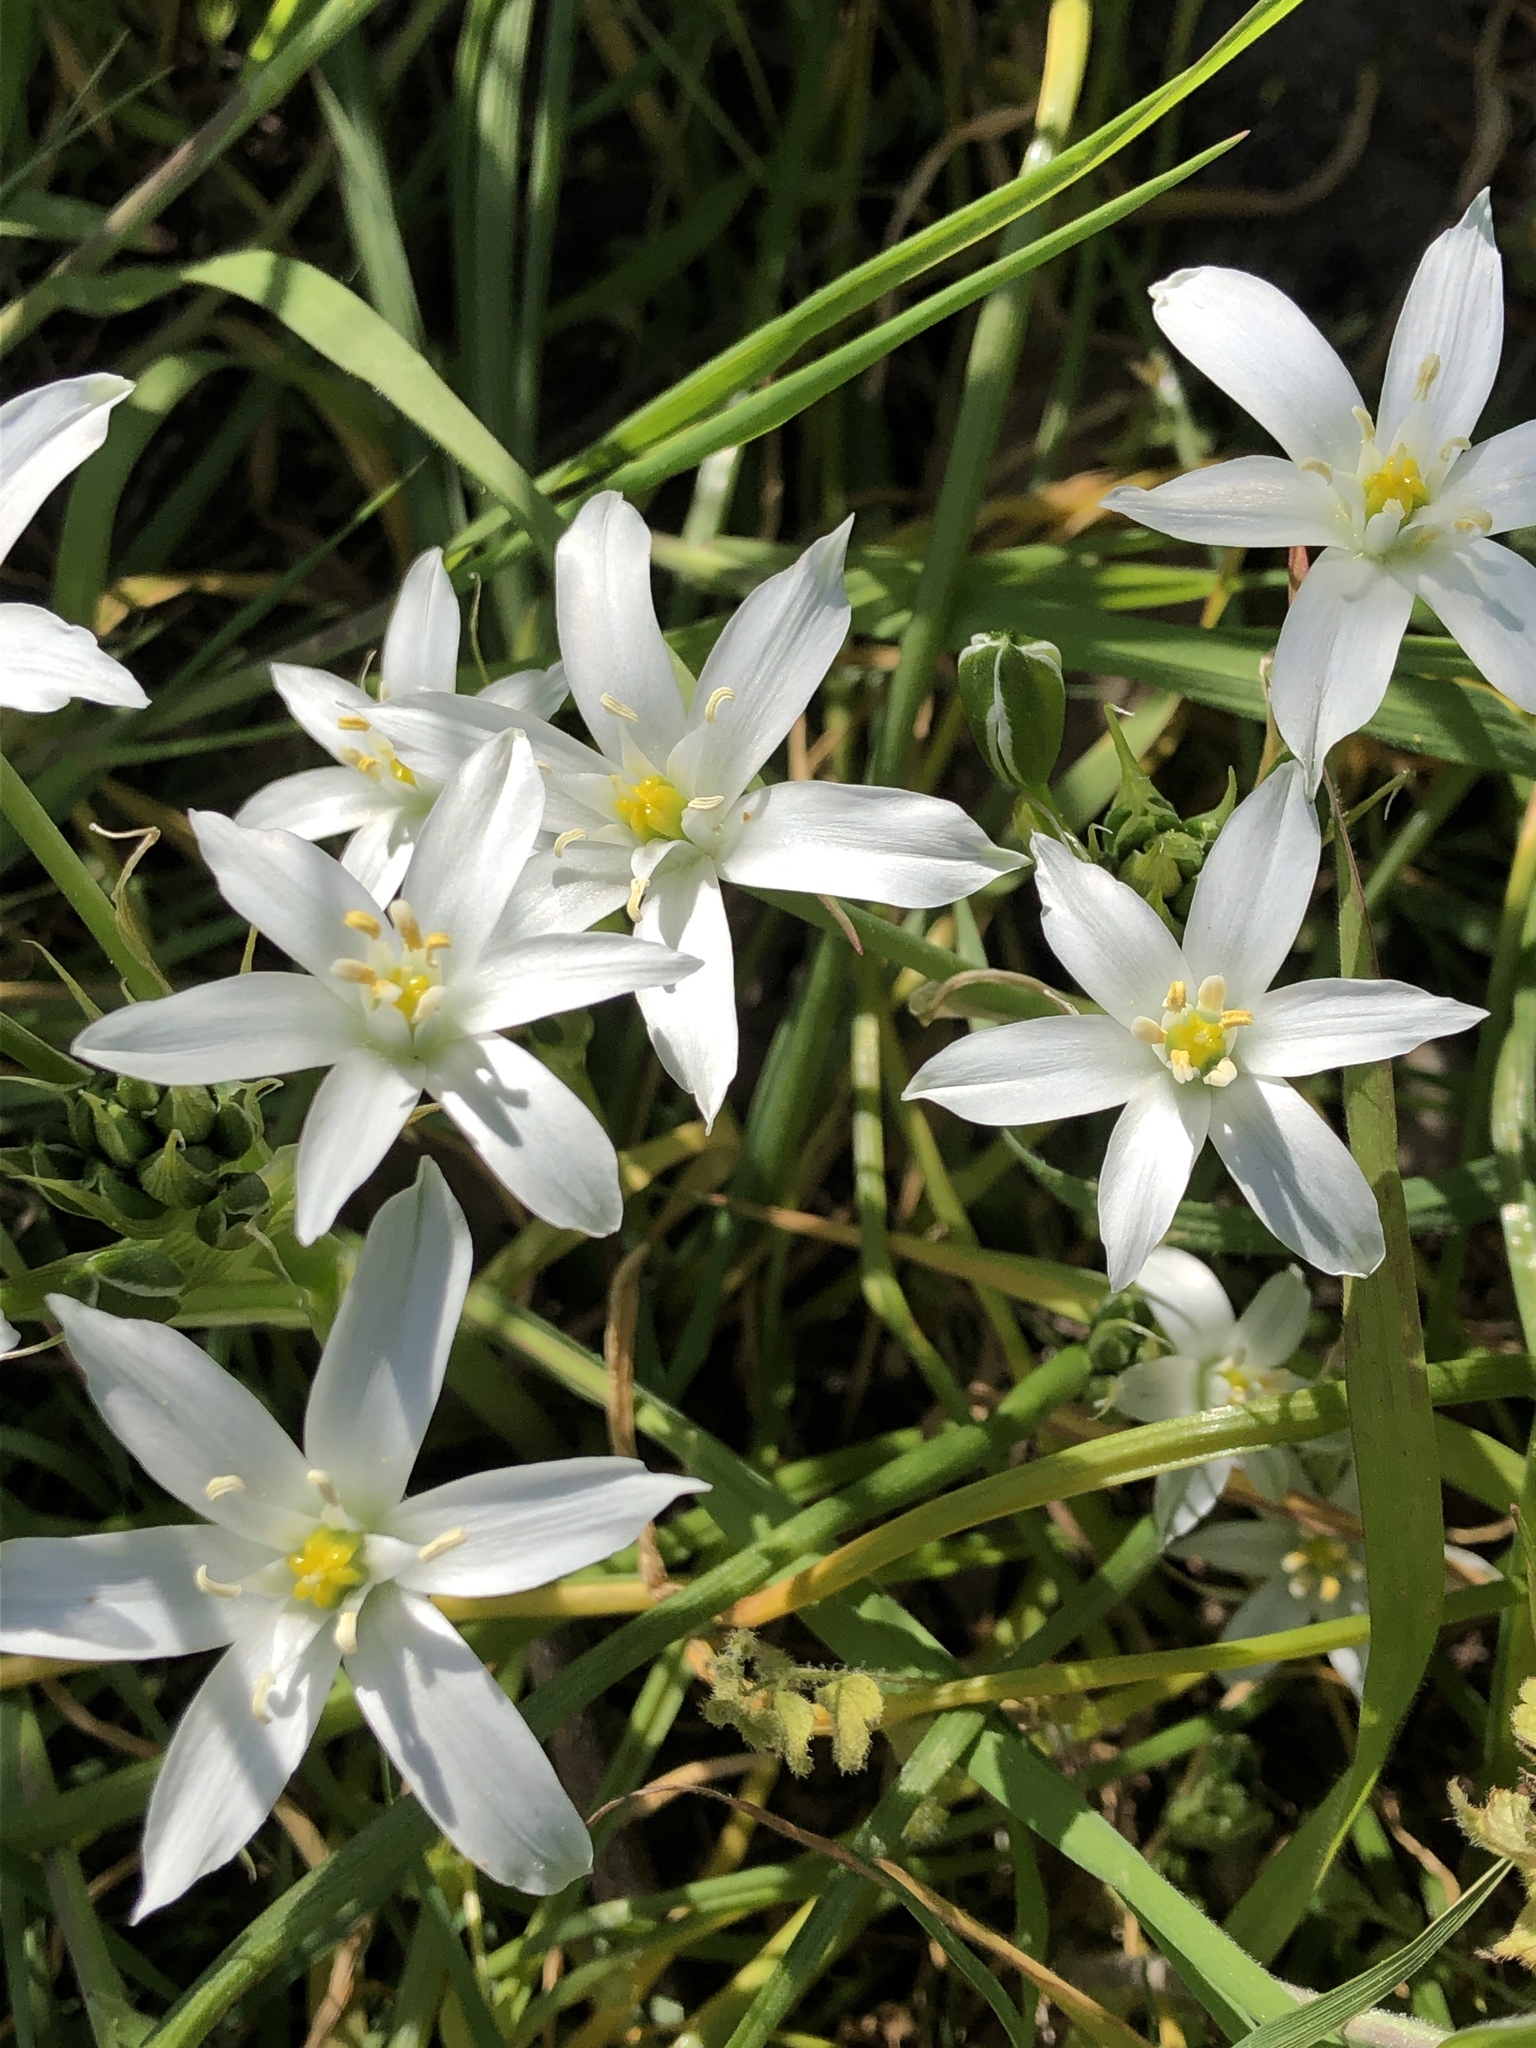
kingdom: Plantae
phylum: Tracheophyta
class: Liliopsida
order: Asparagales
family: Asparagaceae
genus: Ornithogalum
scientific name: Ornithogalum umbellatum
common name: Garden star-of-bethlehem
